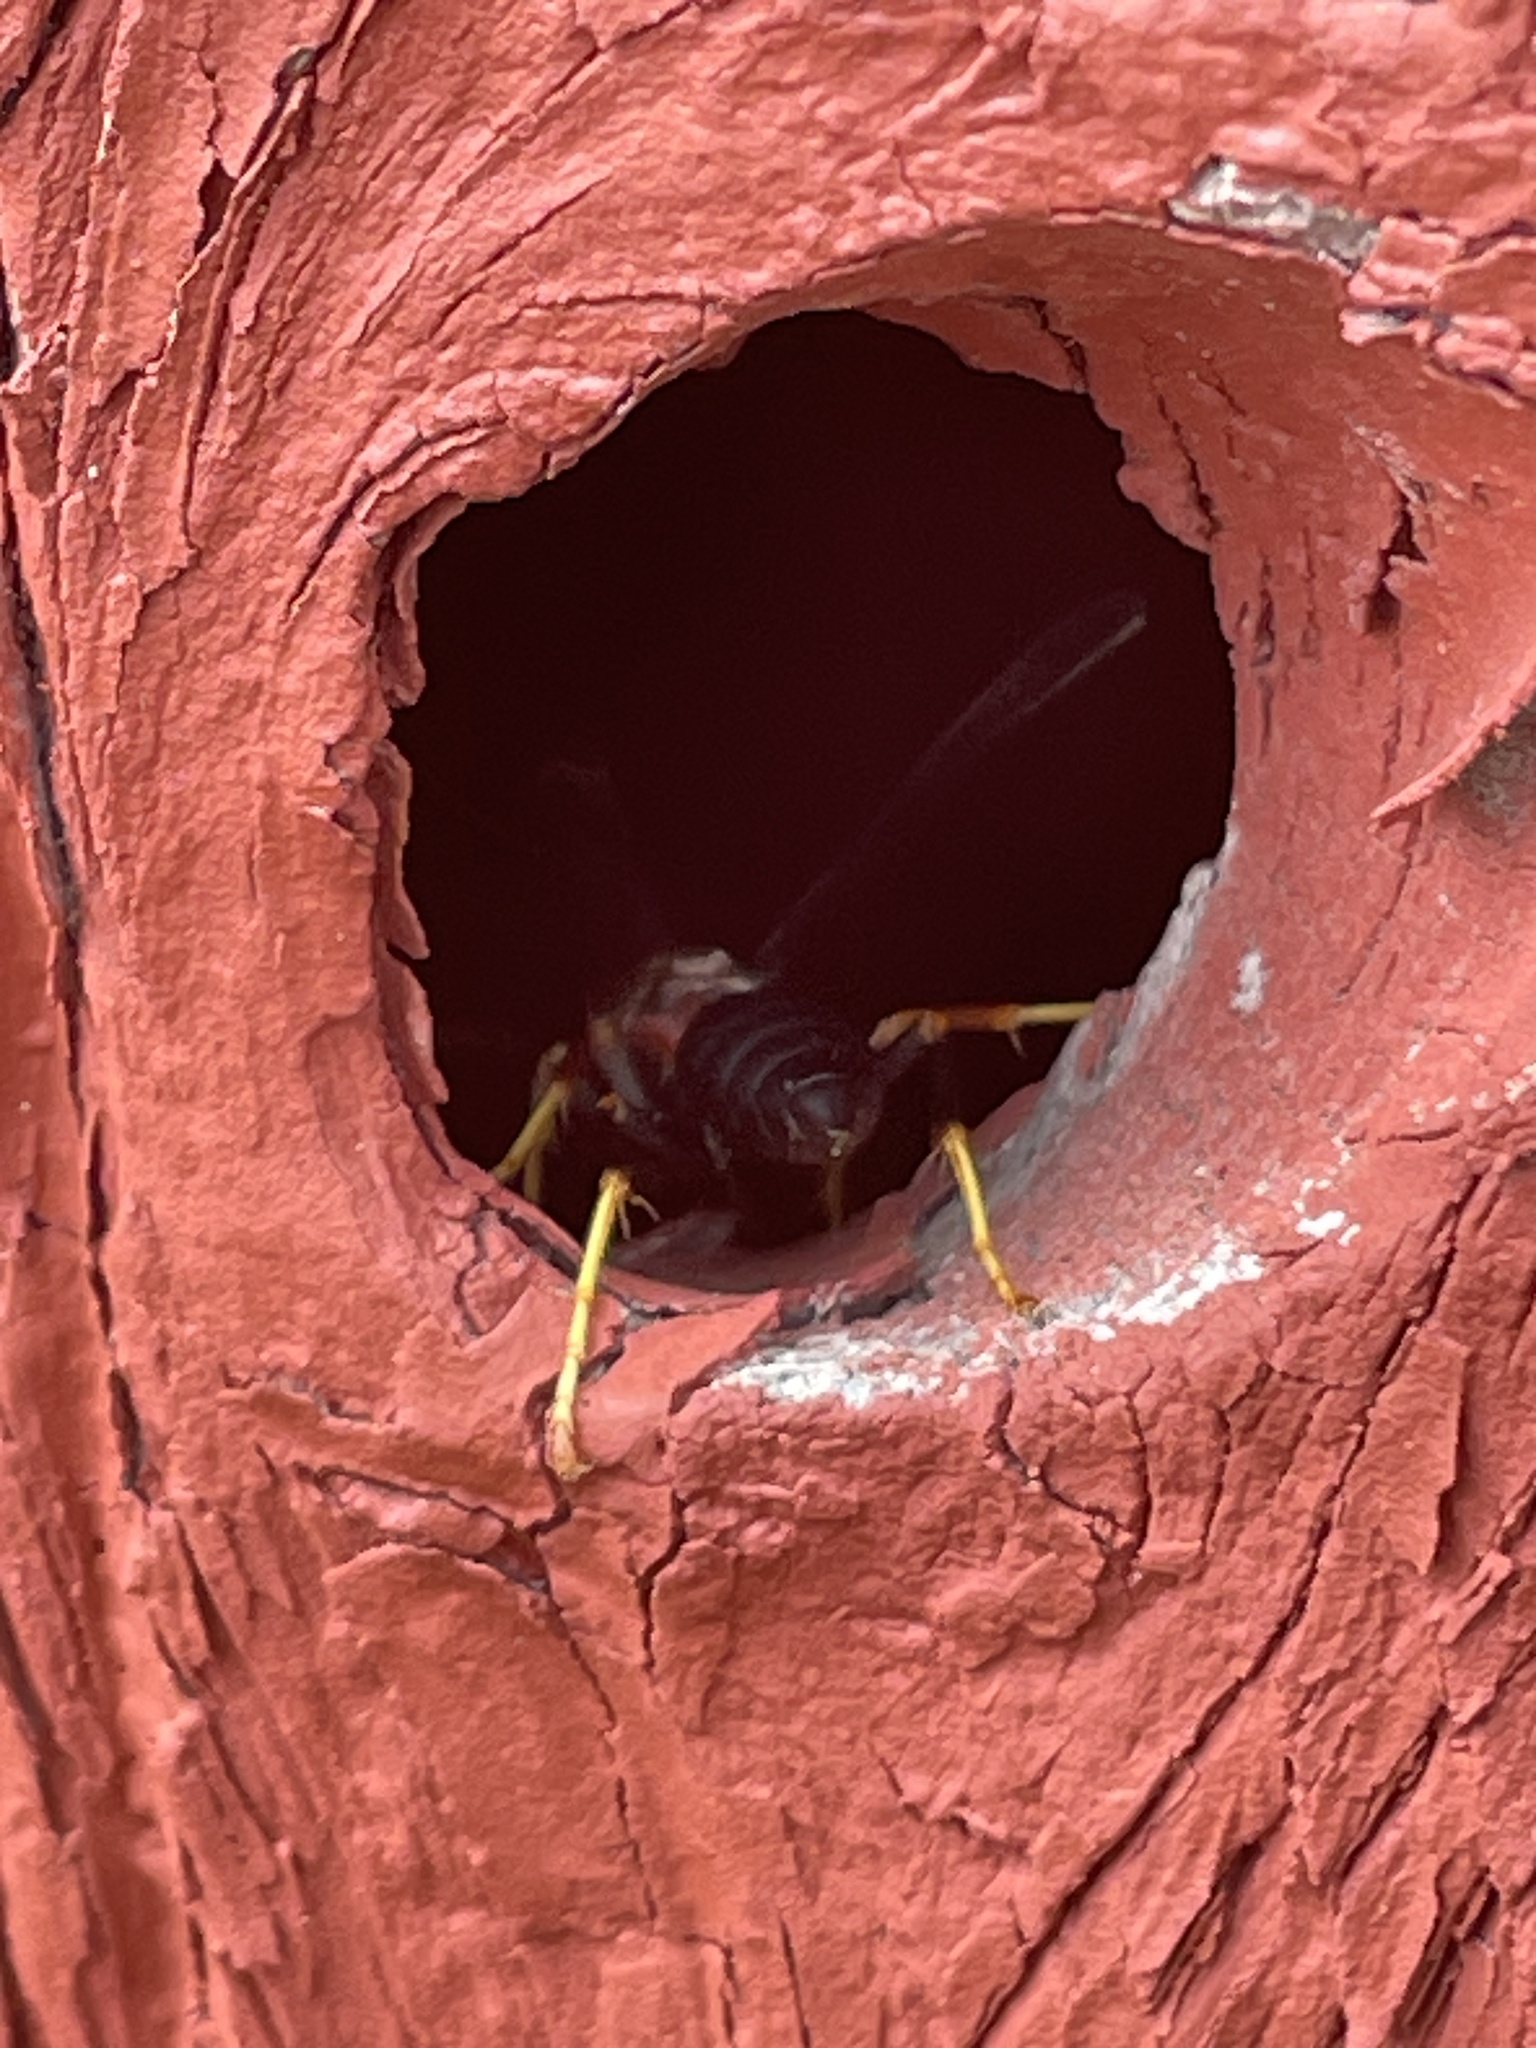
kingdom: Animalia
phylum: Arthropoda
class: Insecta
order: Hymenoptera
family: Eumenidae
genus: Polistes
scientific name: Polistes metricus
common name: Metric paper wasp
